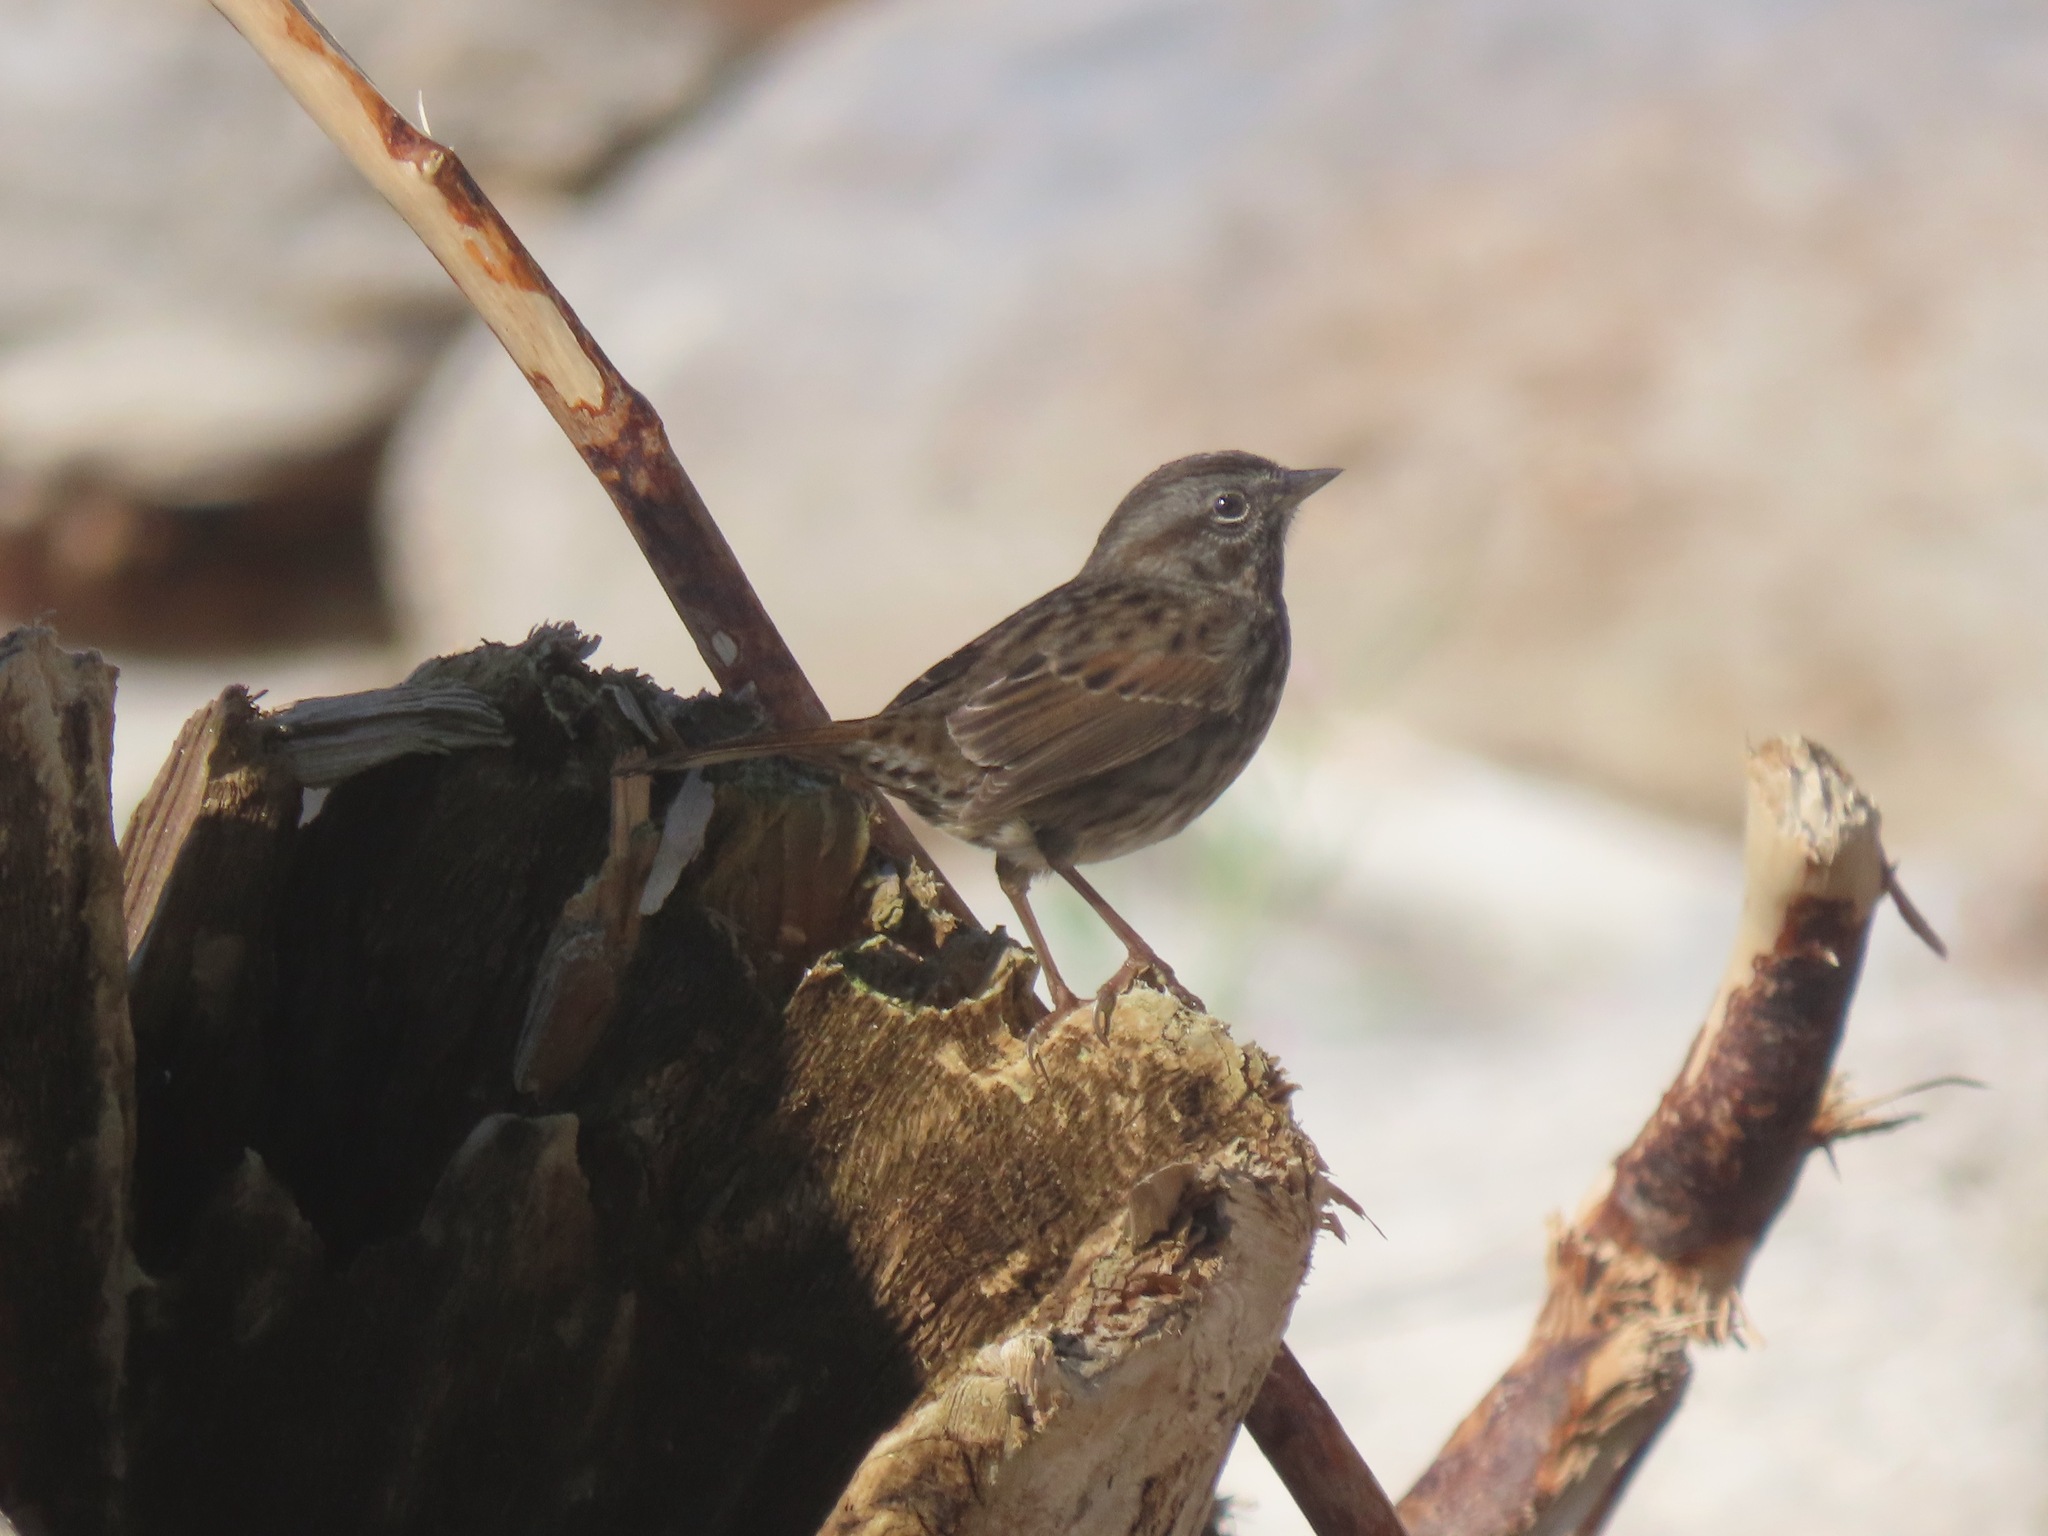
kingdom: Animalia
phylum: Chordata
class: Aves
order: Passeriformes
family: Passerellidae
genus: Melospiza
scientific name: Melospiza melodia
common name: Song sparrow
